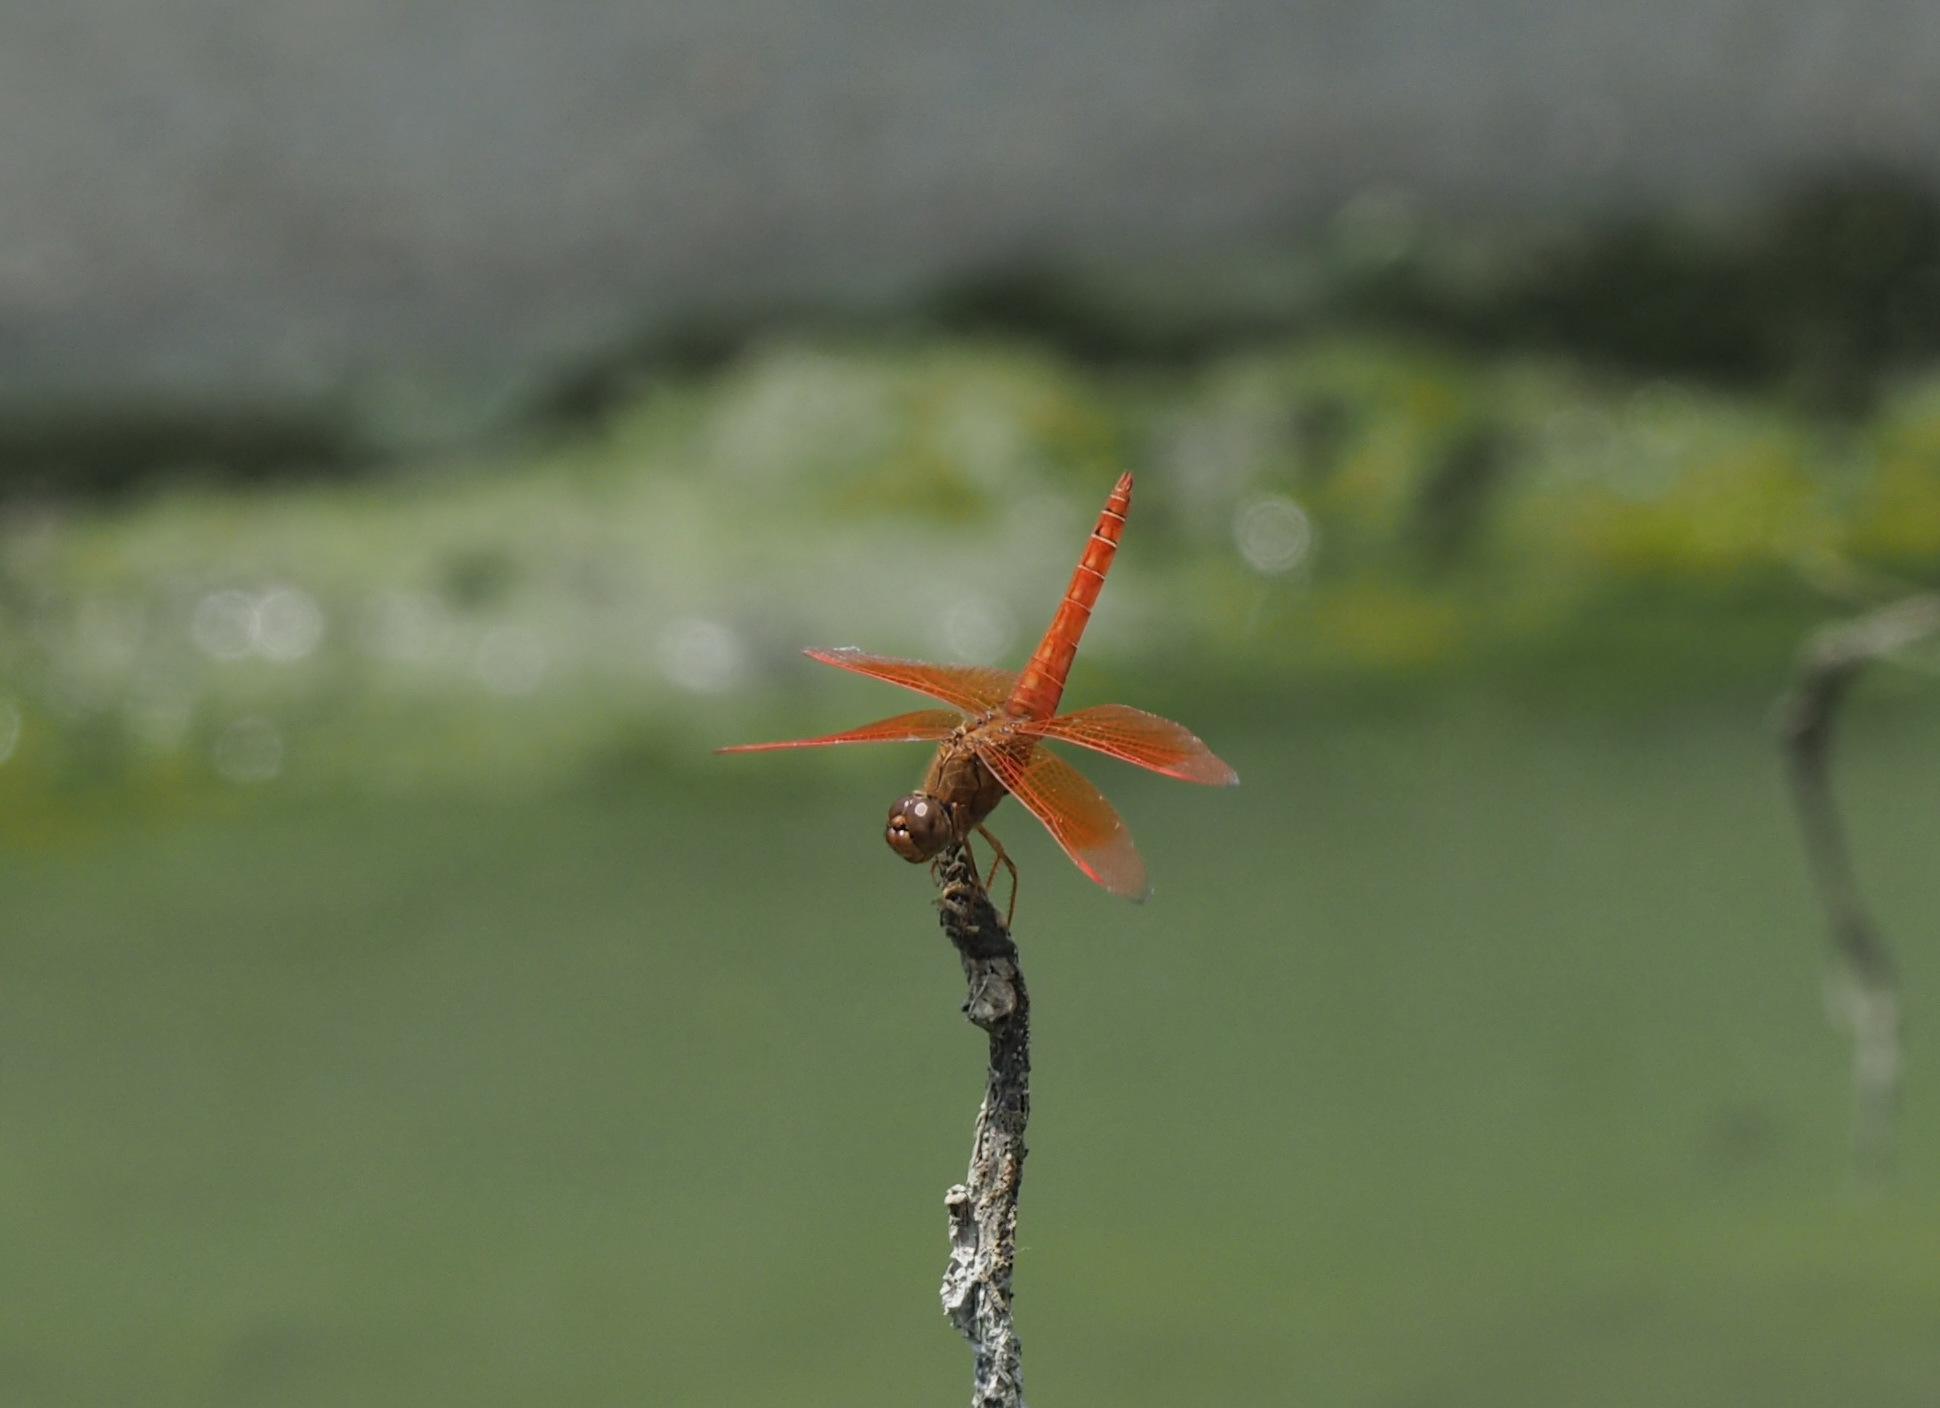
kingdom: Animalia
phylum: Arthropoda
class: Insecta
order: Odonata
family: Libellulidae
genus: Brachythemis
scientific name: Brachythemis contaminata
